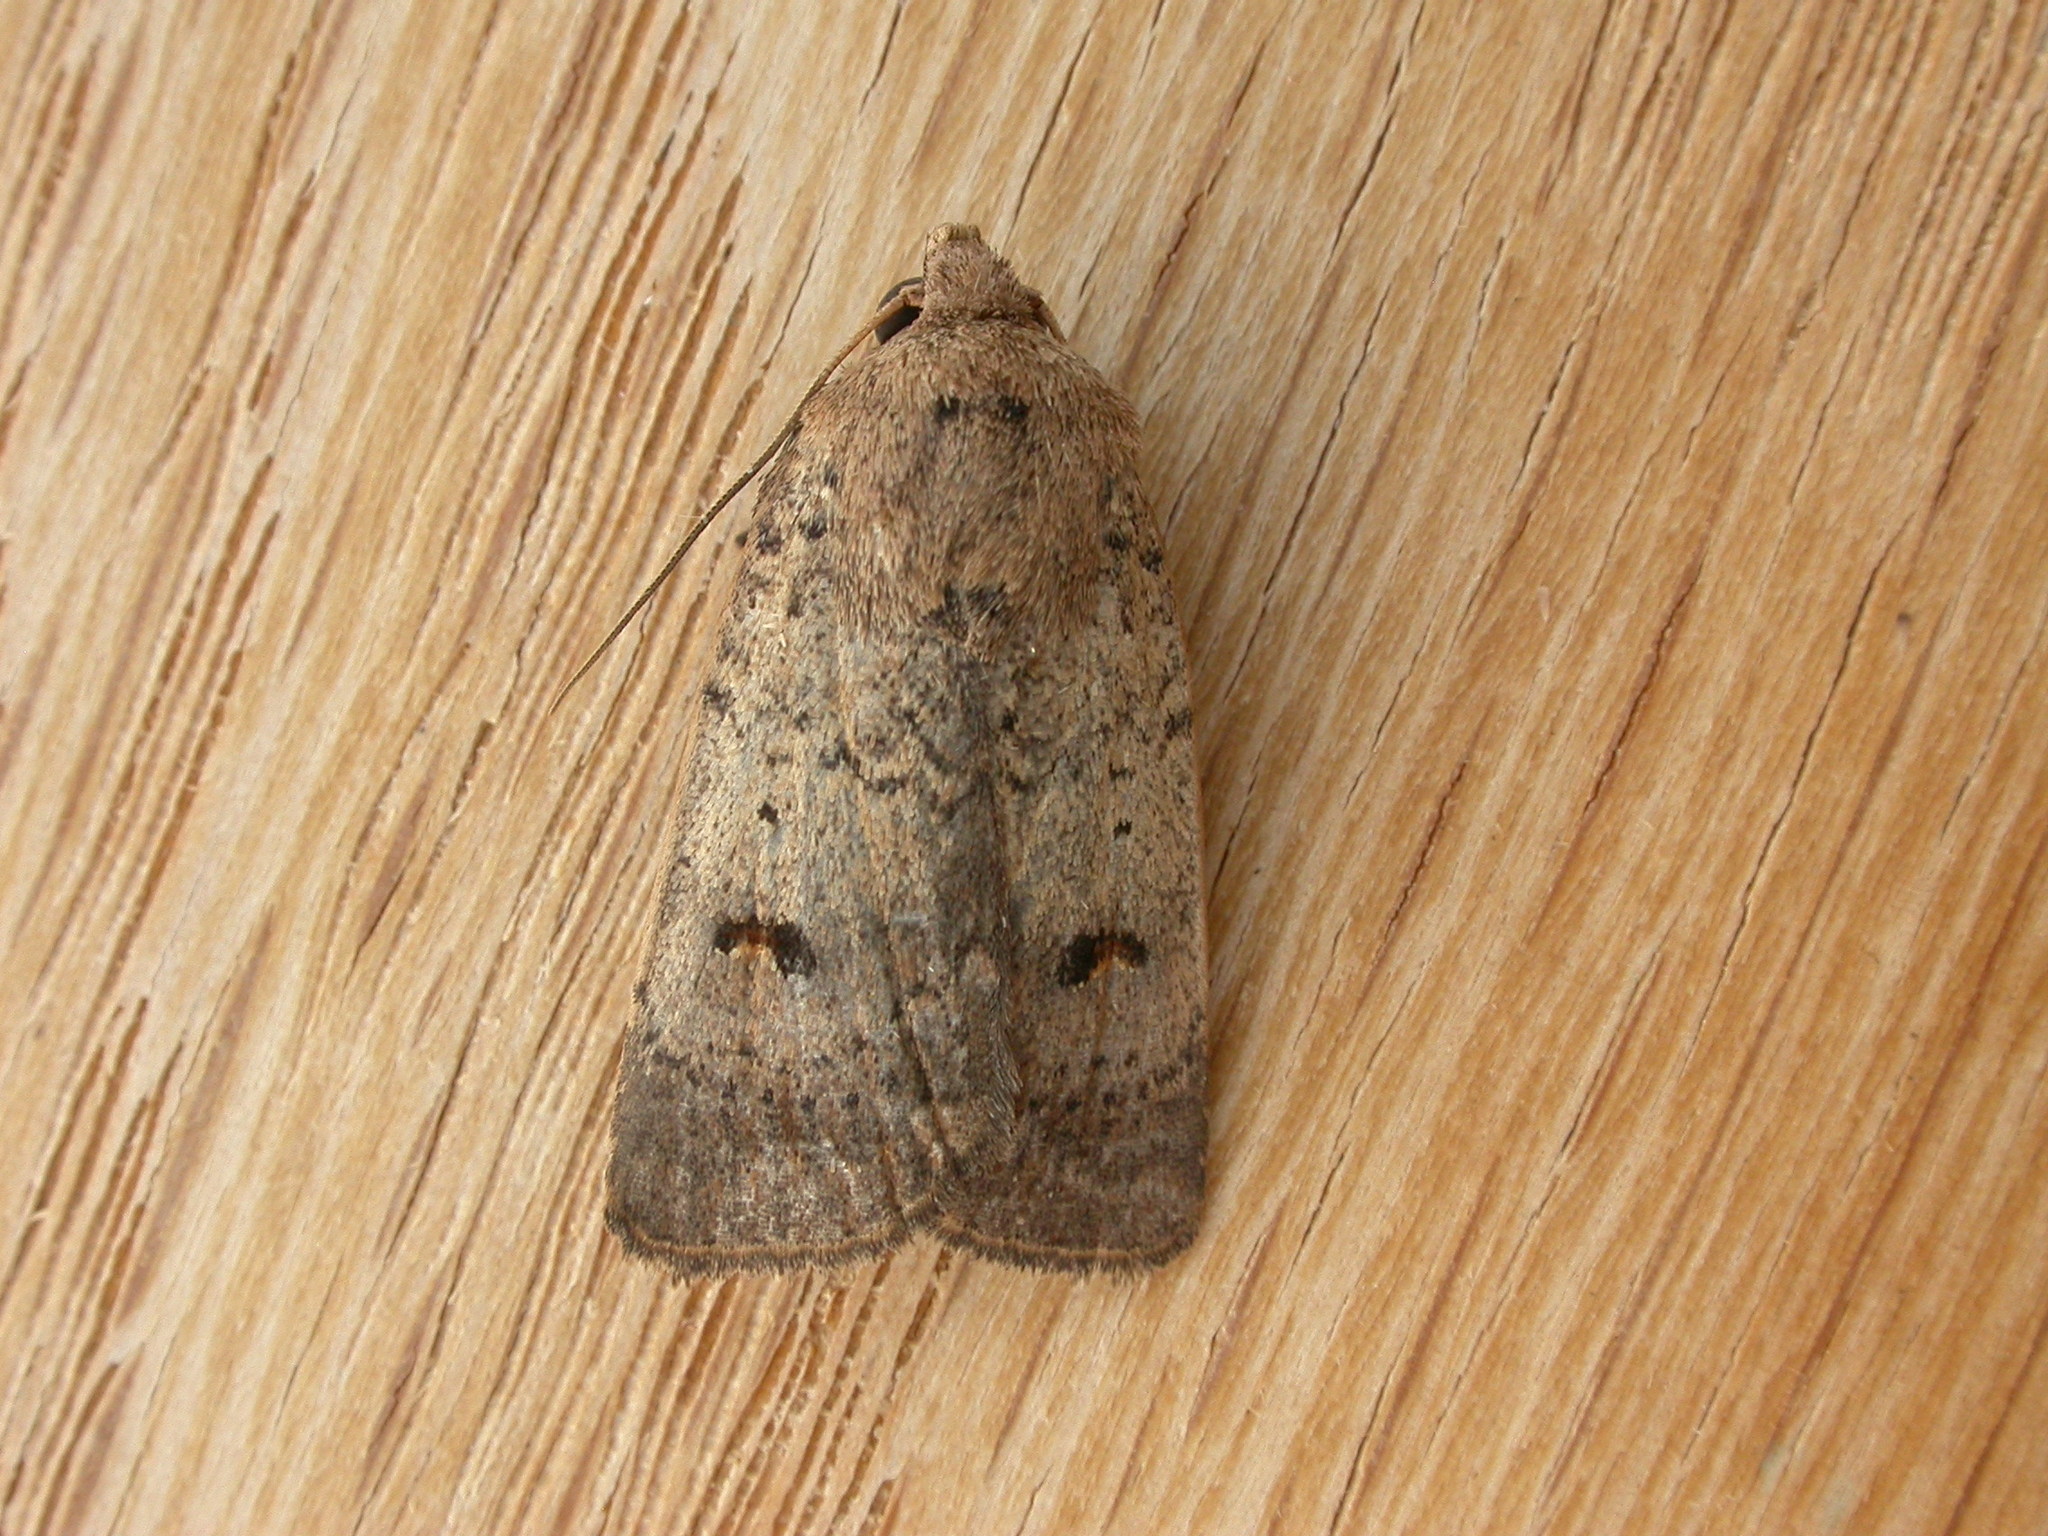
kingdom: Animalia
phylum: Arthropoda
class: Insecta
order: Lepidoptera
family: Noctuidae
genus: Proteuxoa
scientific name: Proteuxoa hypochalchis
